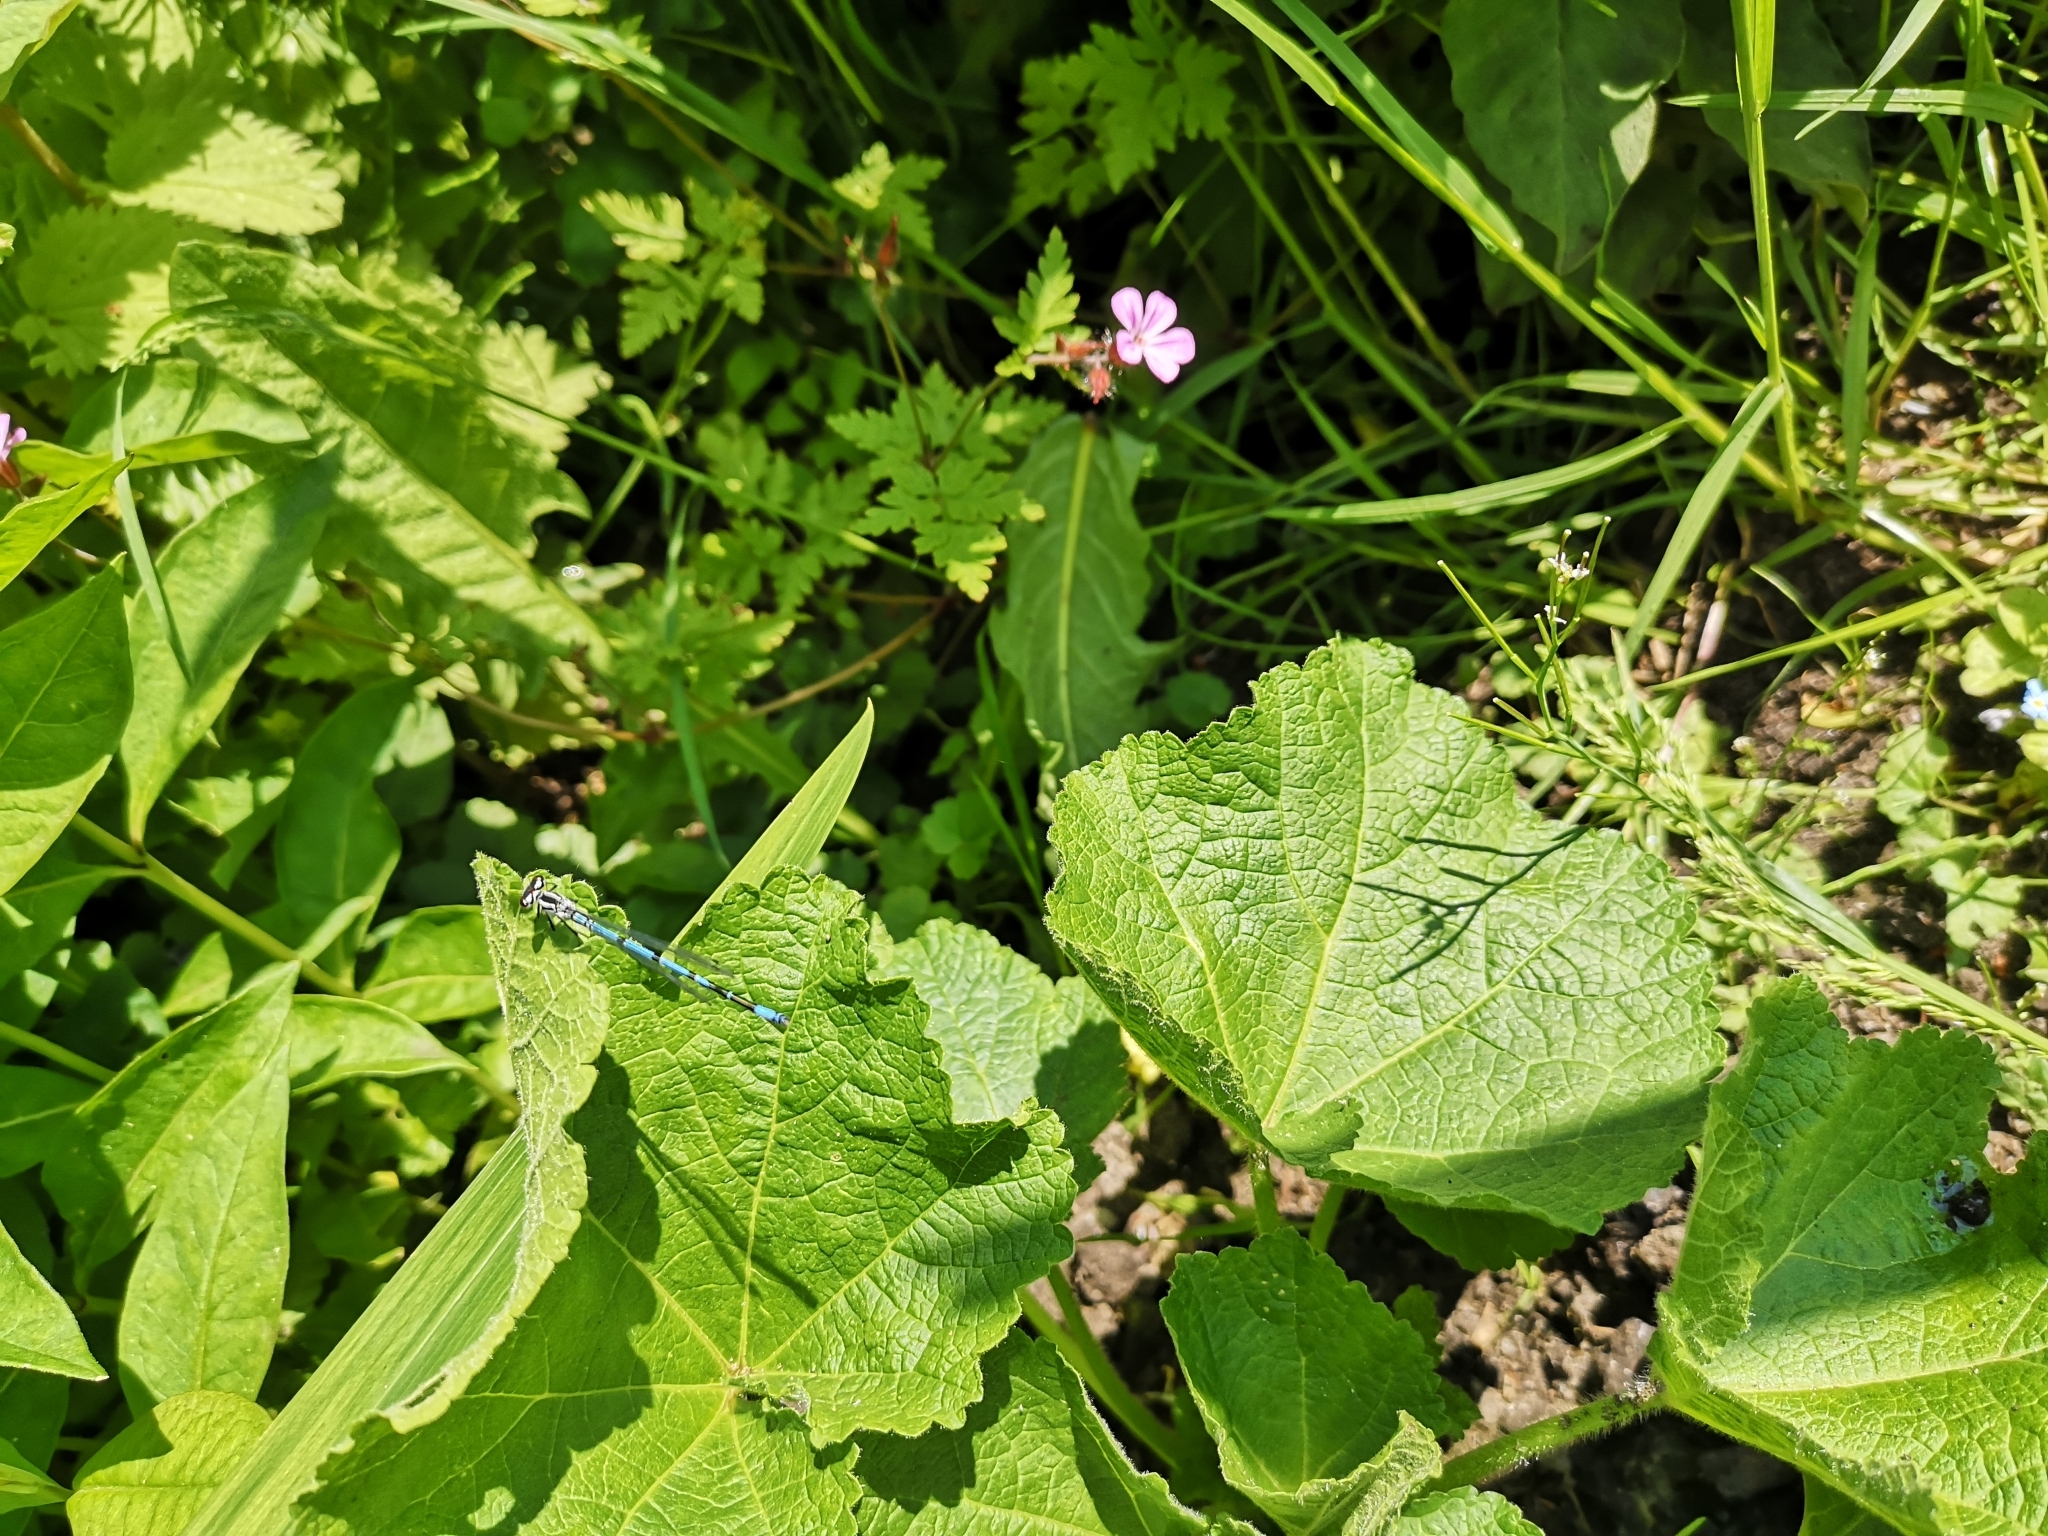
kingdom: Animalia
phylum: Arthropoda
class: Insecta
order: Odonata
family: Coenagrionidae
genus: Coenagrion
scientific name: Coenagrion puella
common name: Azure damselfly
